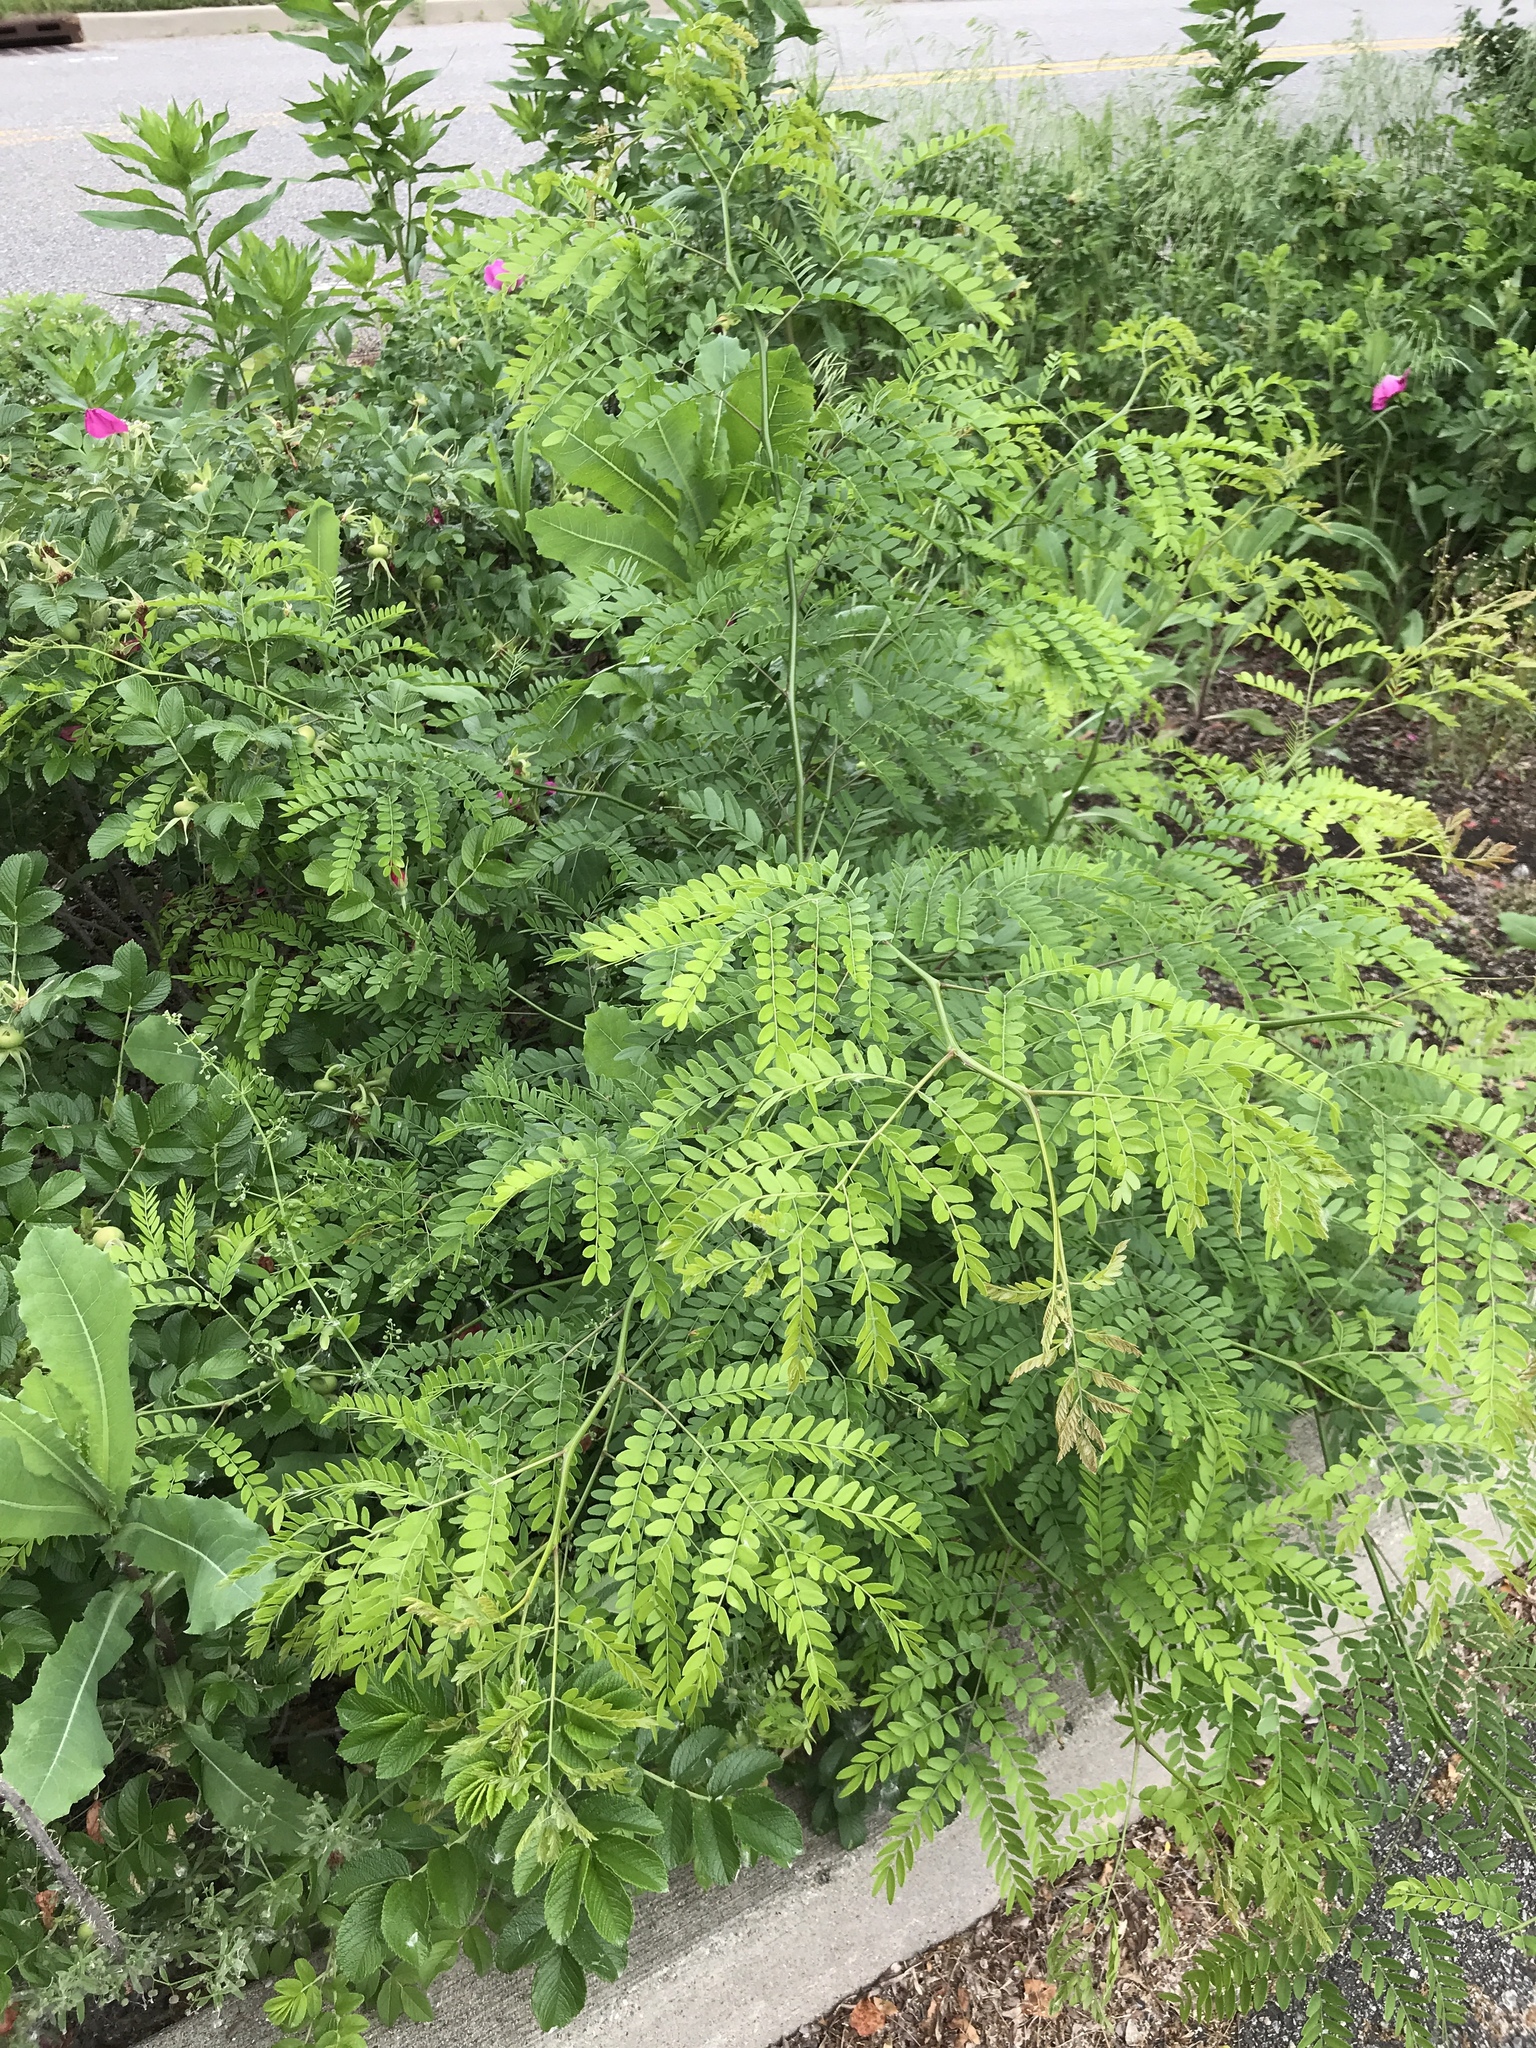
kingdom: Plantae
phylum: Tracheophyta
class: Magnoliopsida
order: Fabales
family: Fabaceae
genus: Gleditsia
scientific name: Gleditsia triacanthos
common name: Common honeylocust
